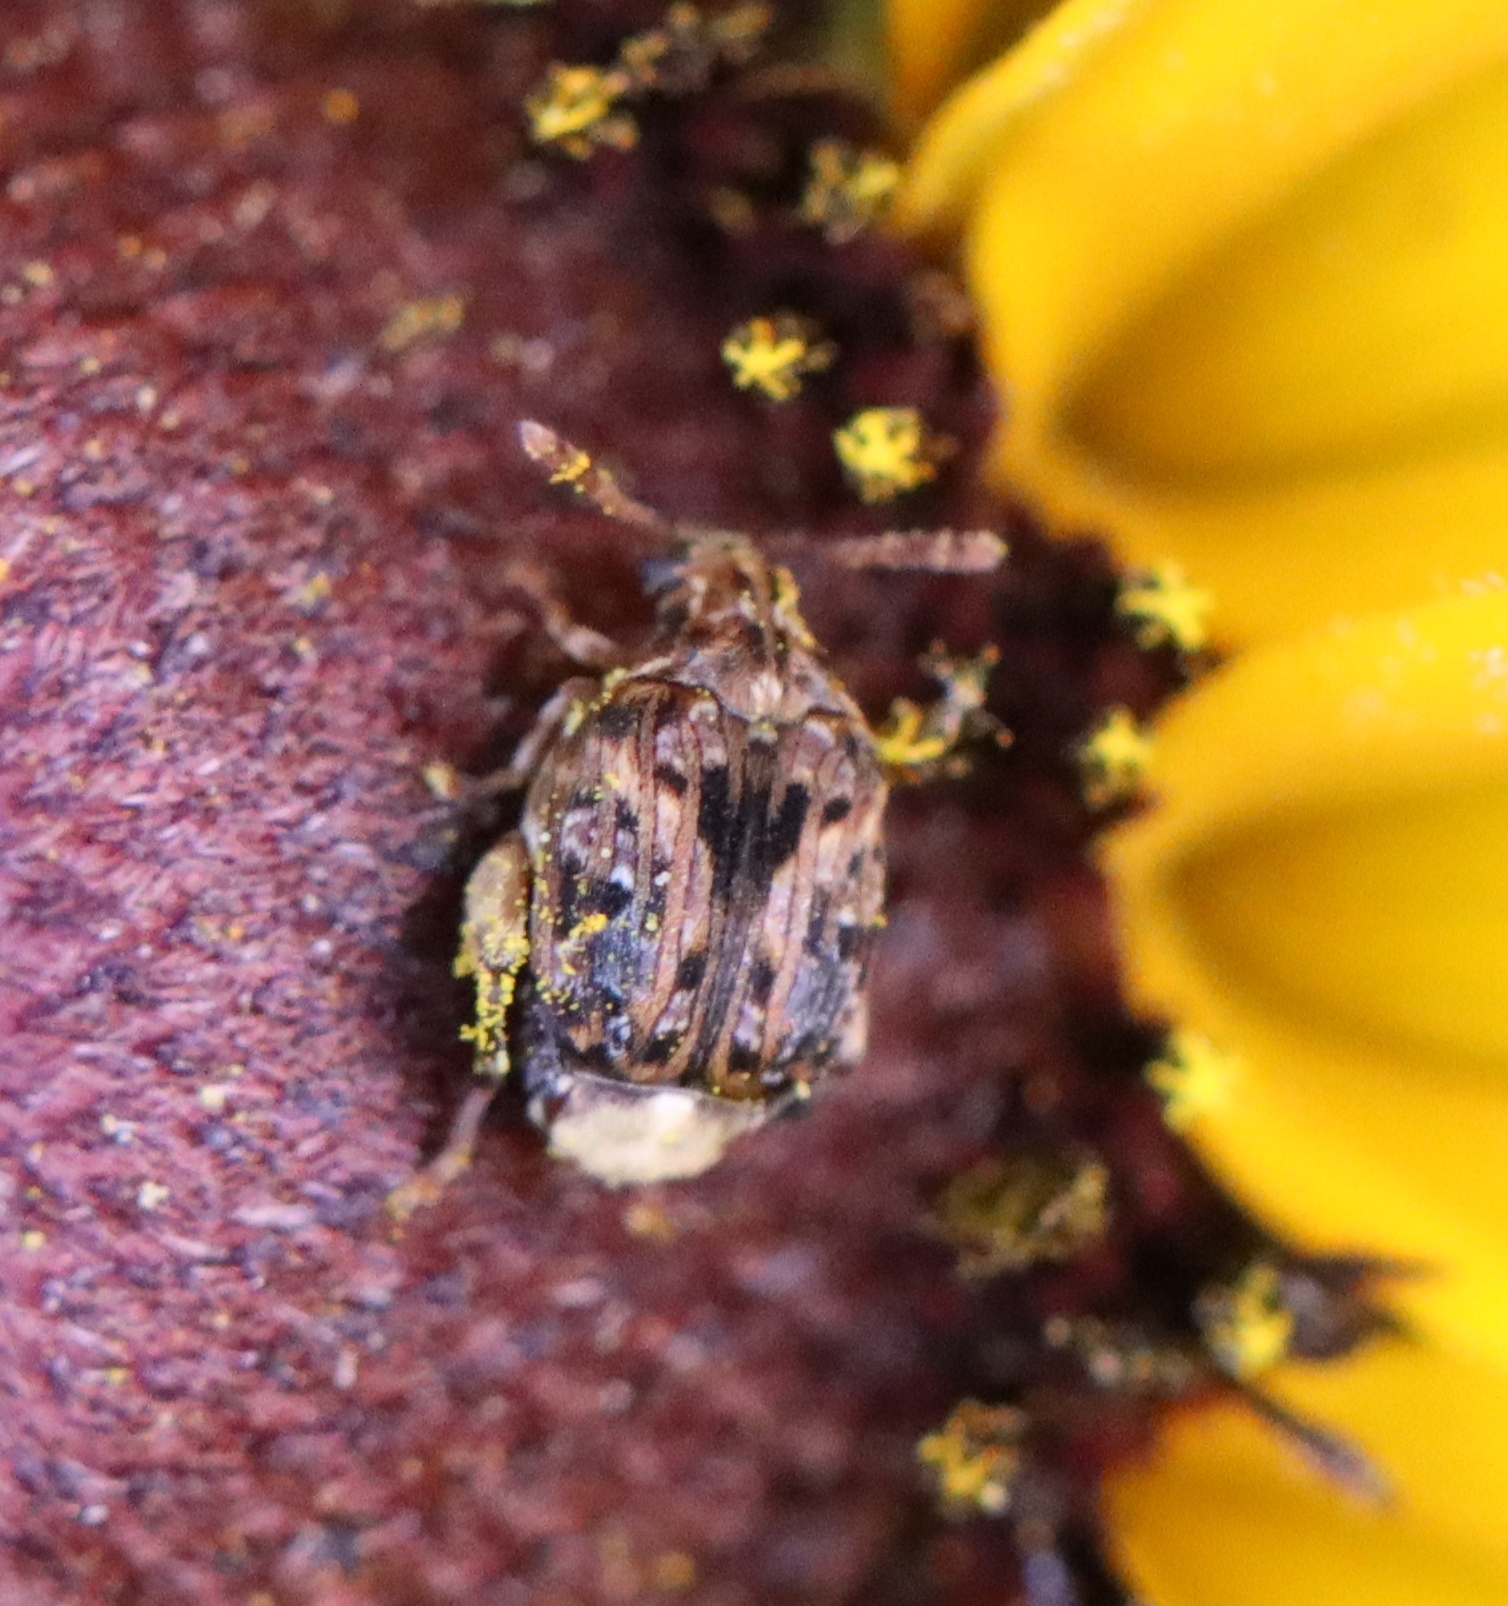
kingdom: Animalia
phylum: Arthropoda
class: Insecta
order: Coleoptera
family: Chrysomelidae
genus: Gibbobruchus
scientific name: Gibbobruchus mimus
